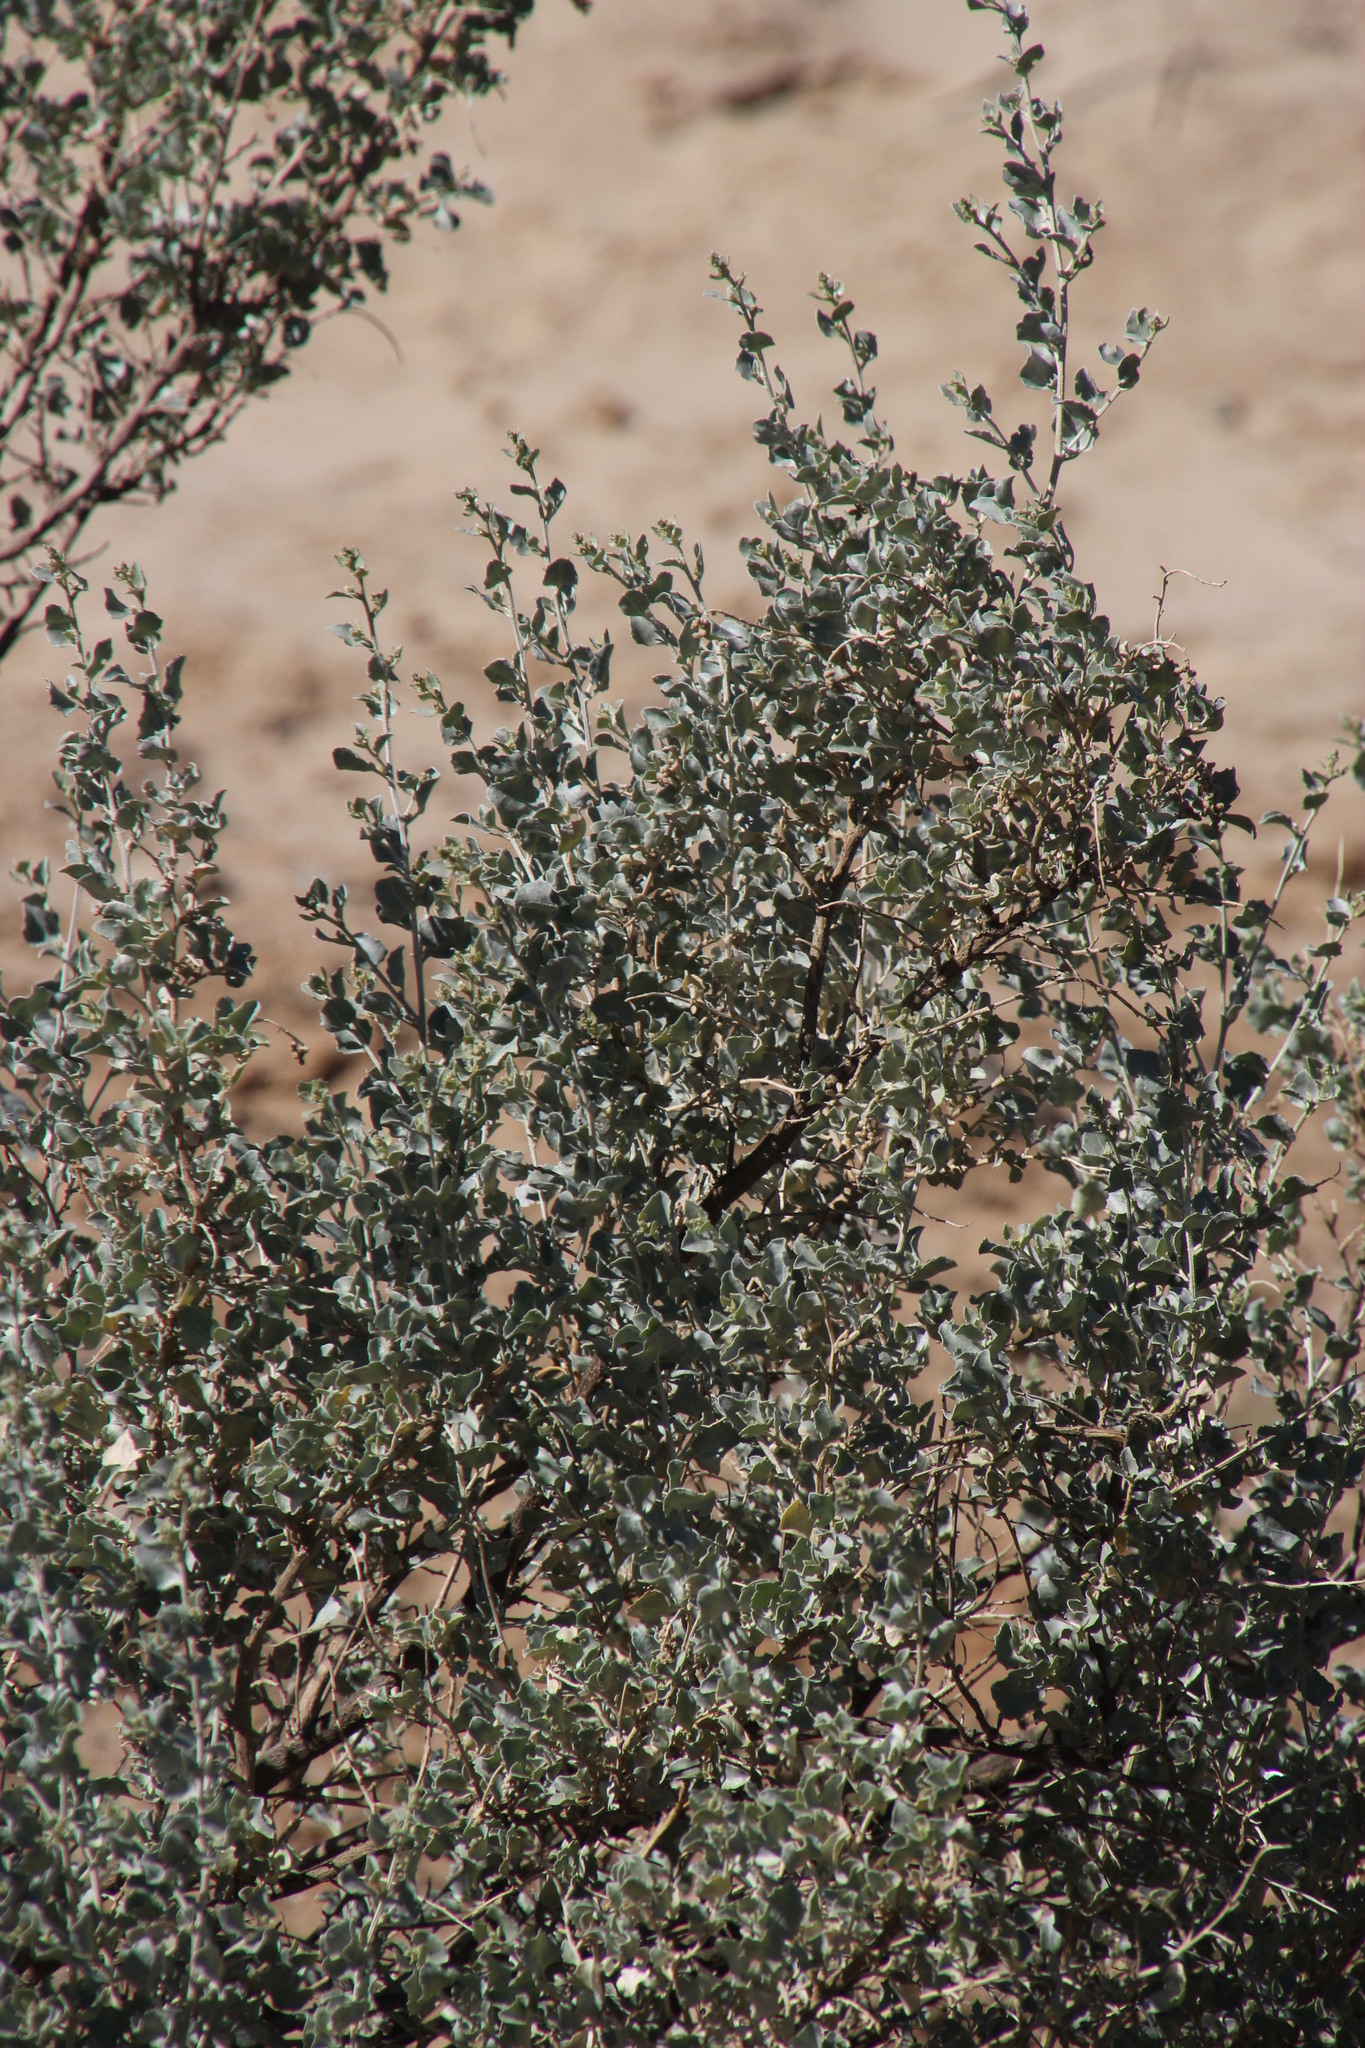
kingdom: Plantae
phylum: Tracheophyta
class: Magnoliopsida
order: Caryophyllales
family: Amaranthaceae
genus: Atriplex
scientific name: Atriplex vestita
